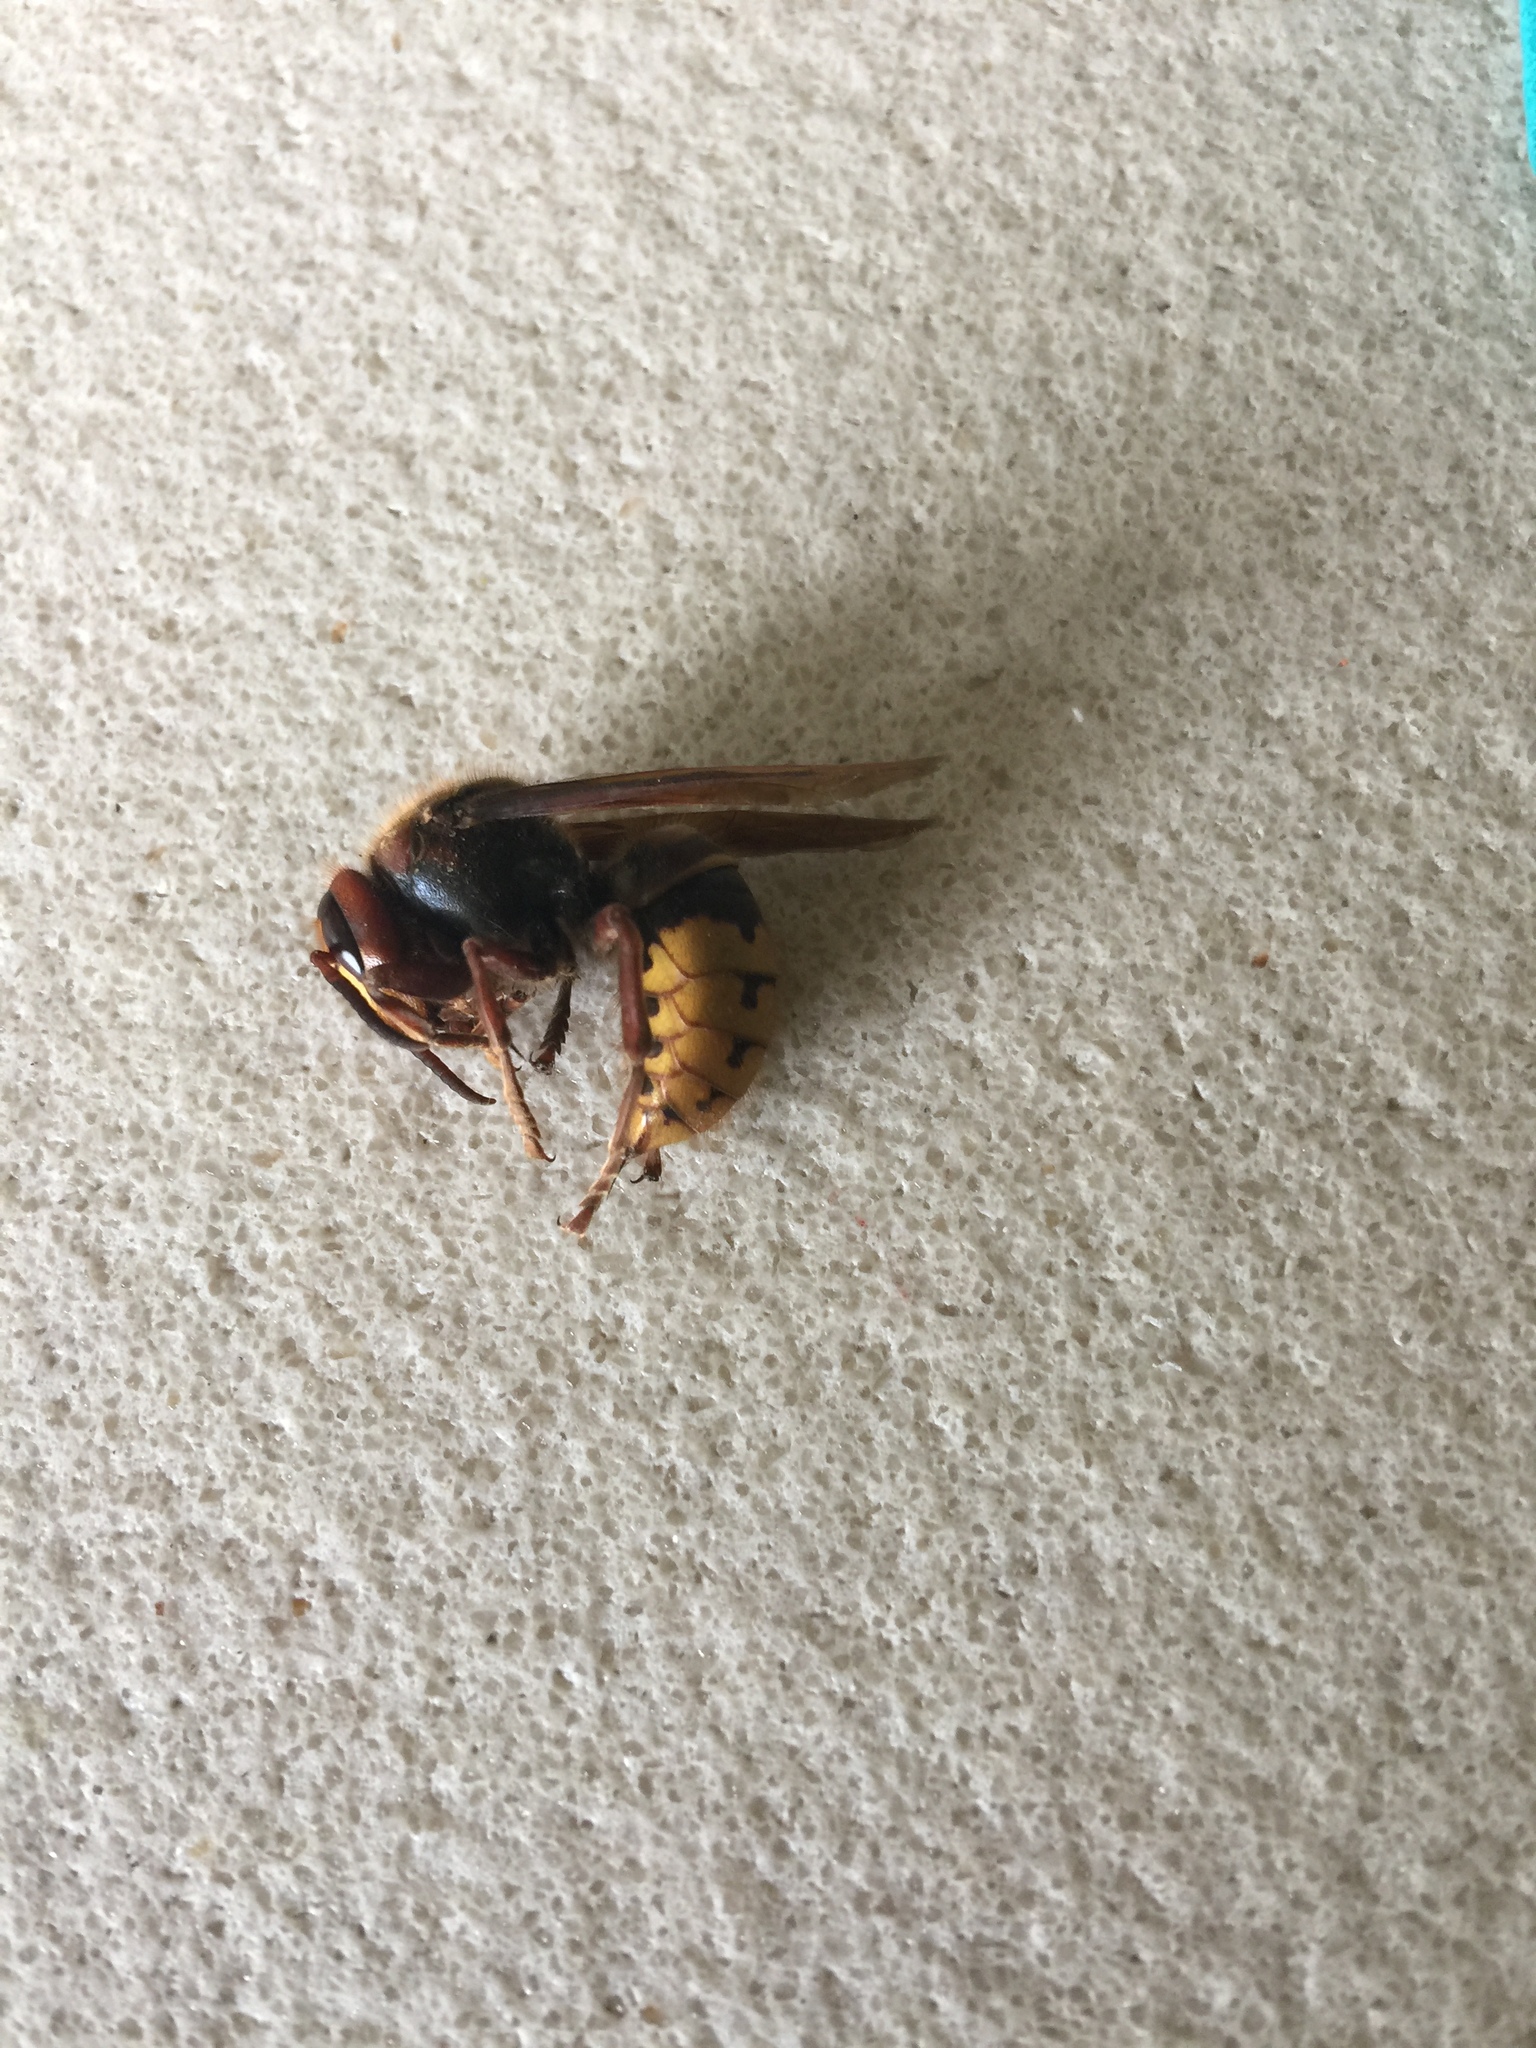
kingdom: Animalia
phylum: Arthropoda
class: Insecta
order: Hymenoptera
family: Vespidae
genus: Vespa
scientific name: Vespa crabro
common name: Hornet
